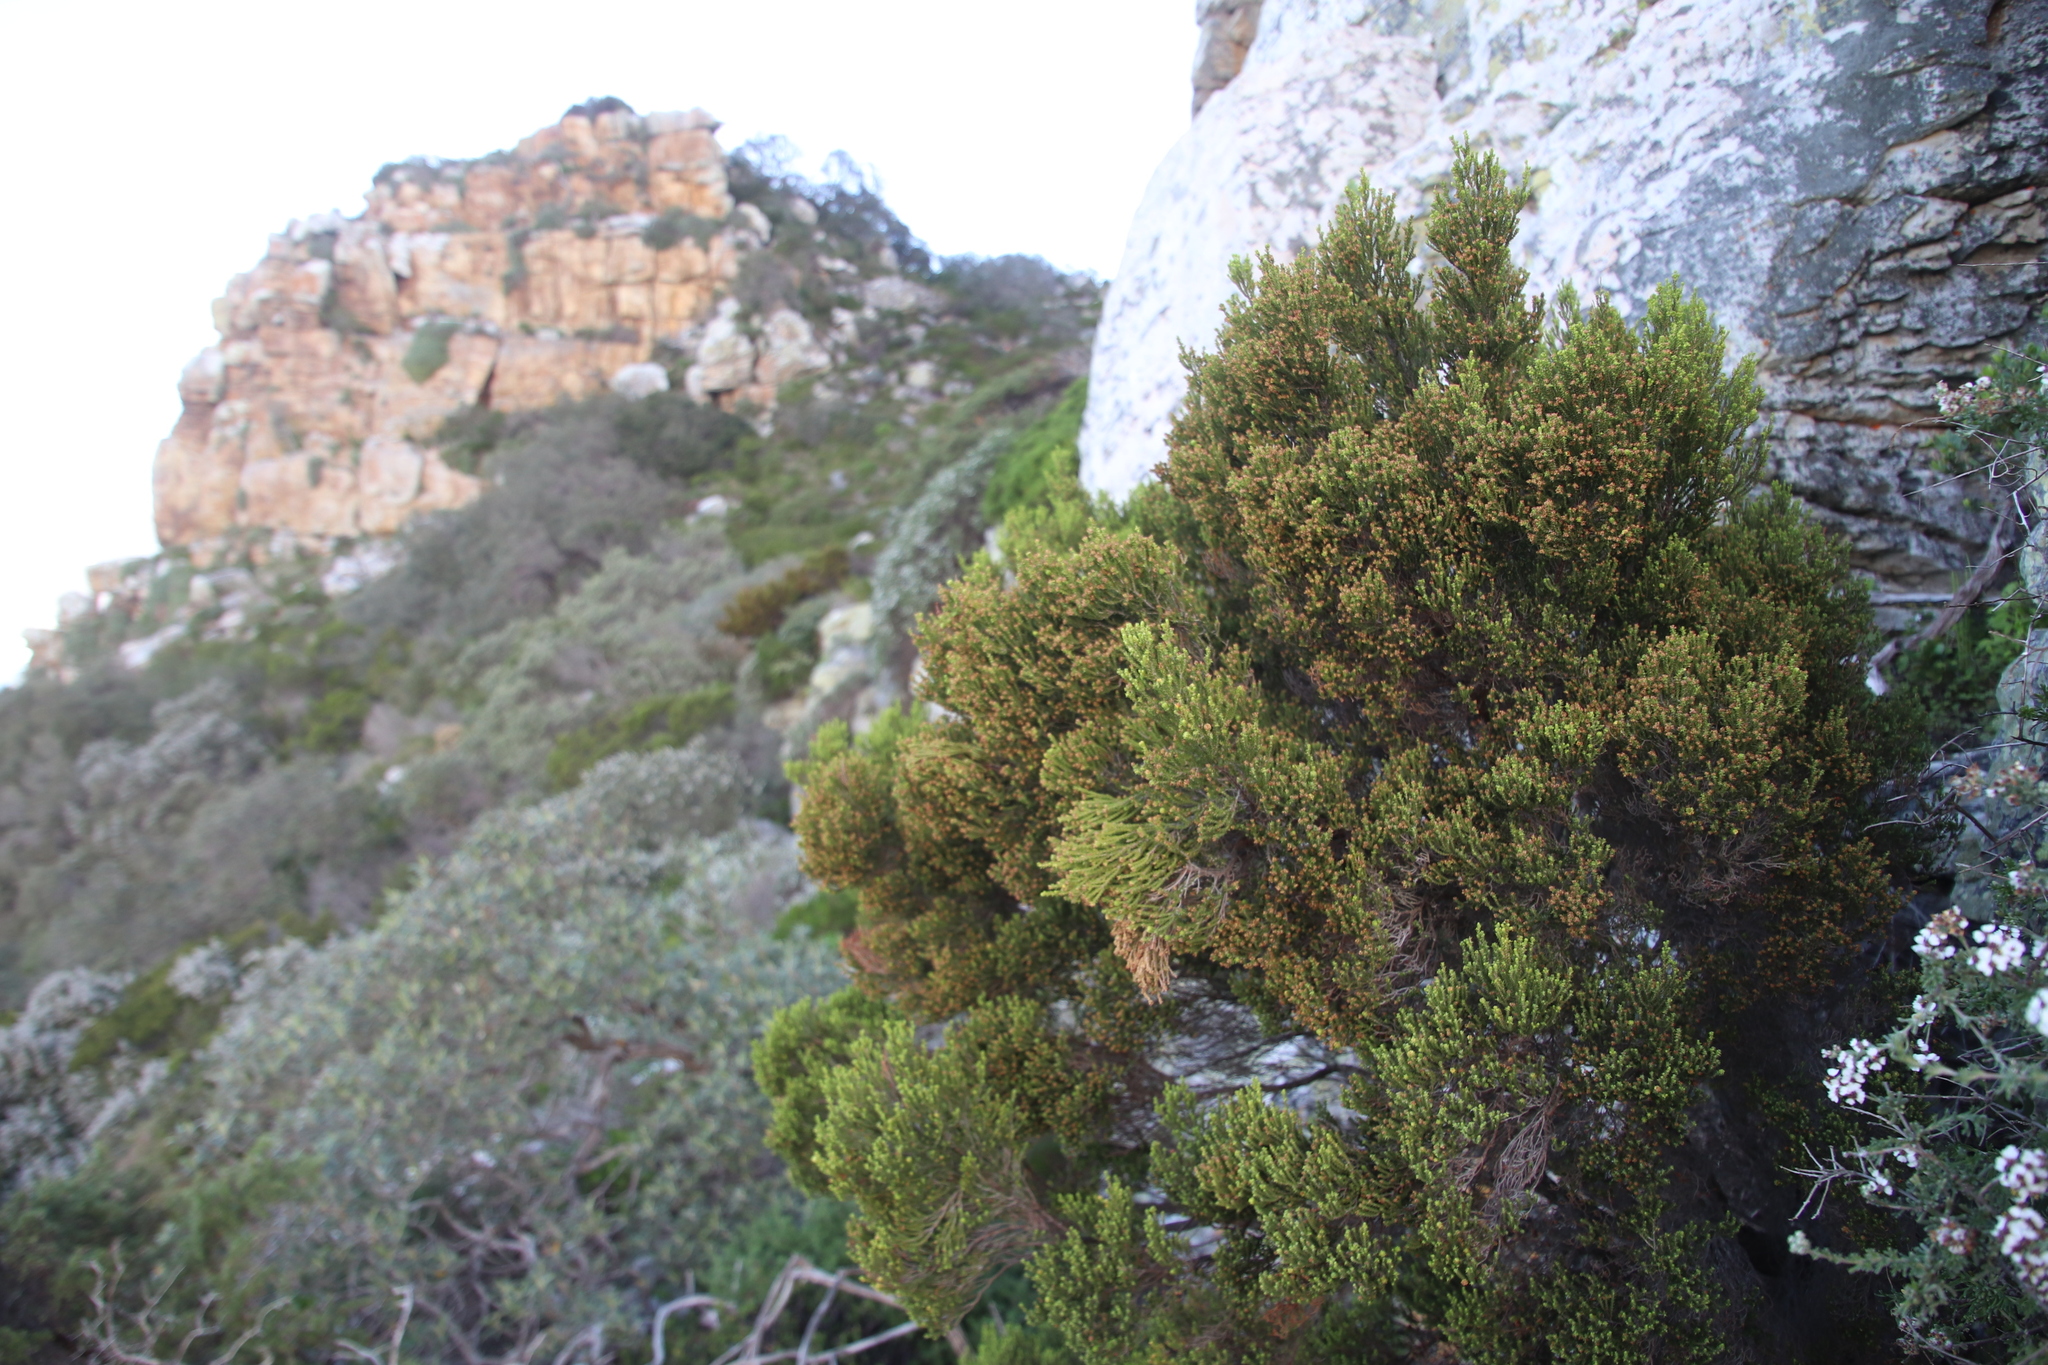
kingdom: Plantae
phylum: Tracheophyta
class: Magnoliopsida
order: Ericales
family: Ericaceae
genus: Erica
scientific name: Erica tristis
